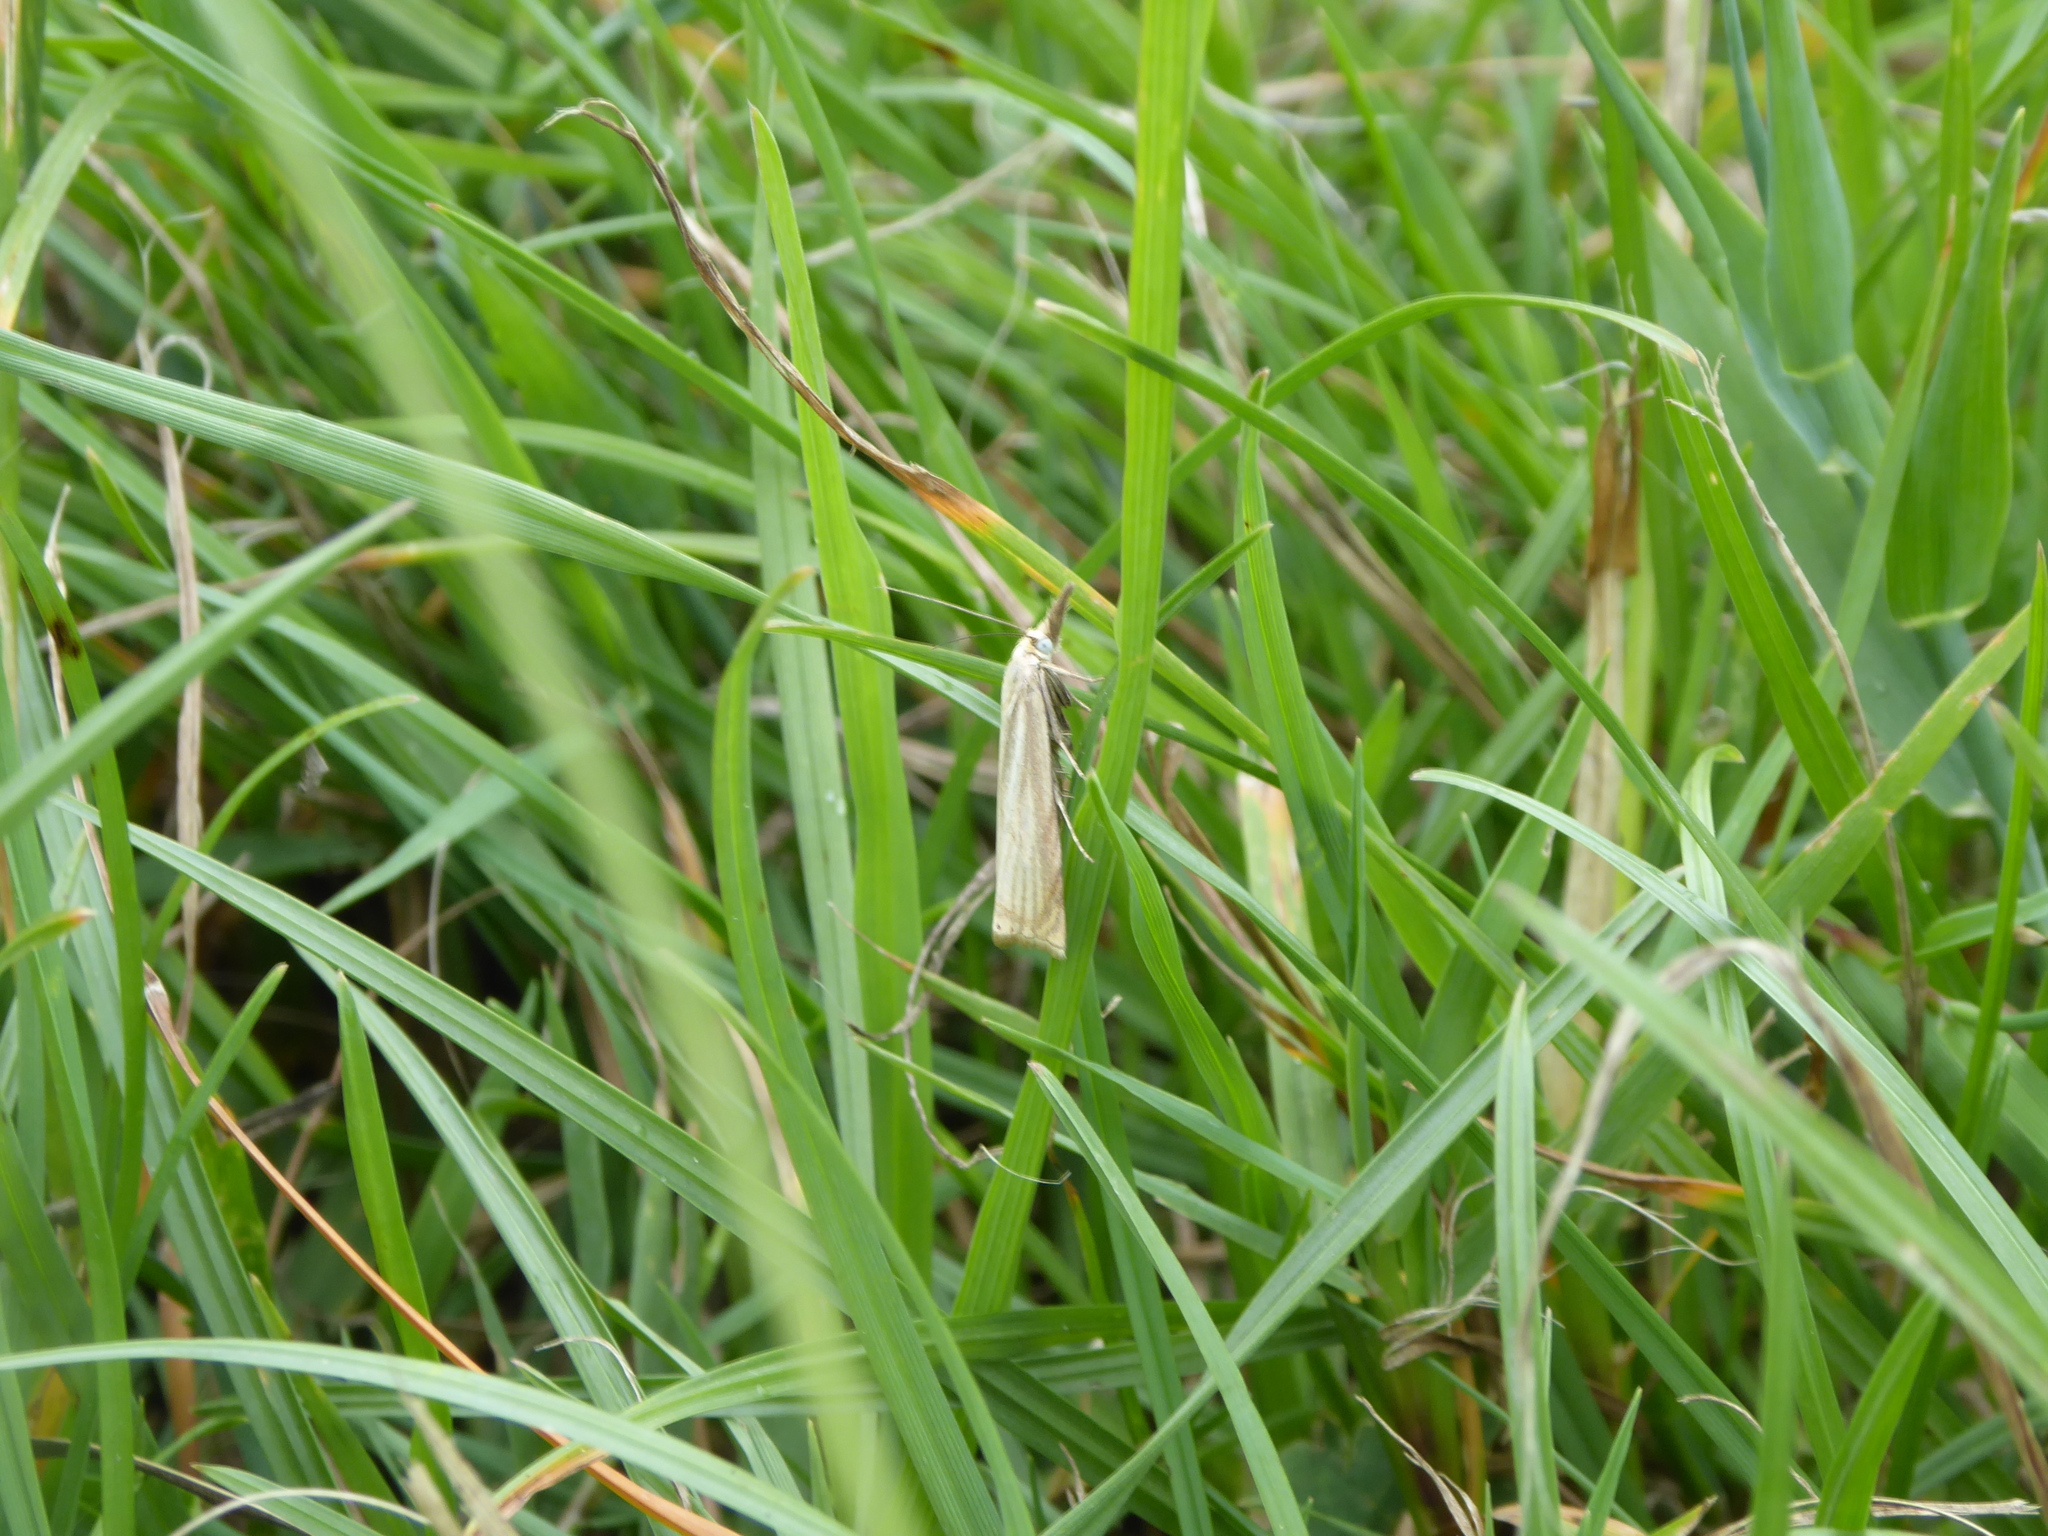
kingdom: Animalia
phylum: Arthropoda
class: Insecta
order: Lepidoptera
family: Crambidae
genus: Chrysoteuchia
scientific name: Chrysoteuchia culmella
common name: Garden grass-veneer
